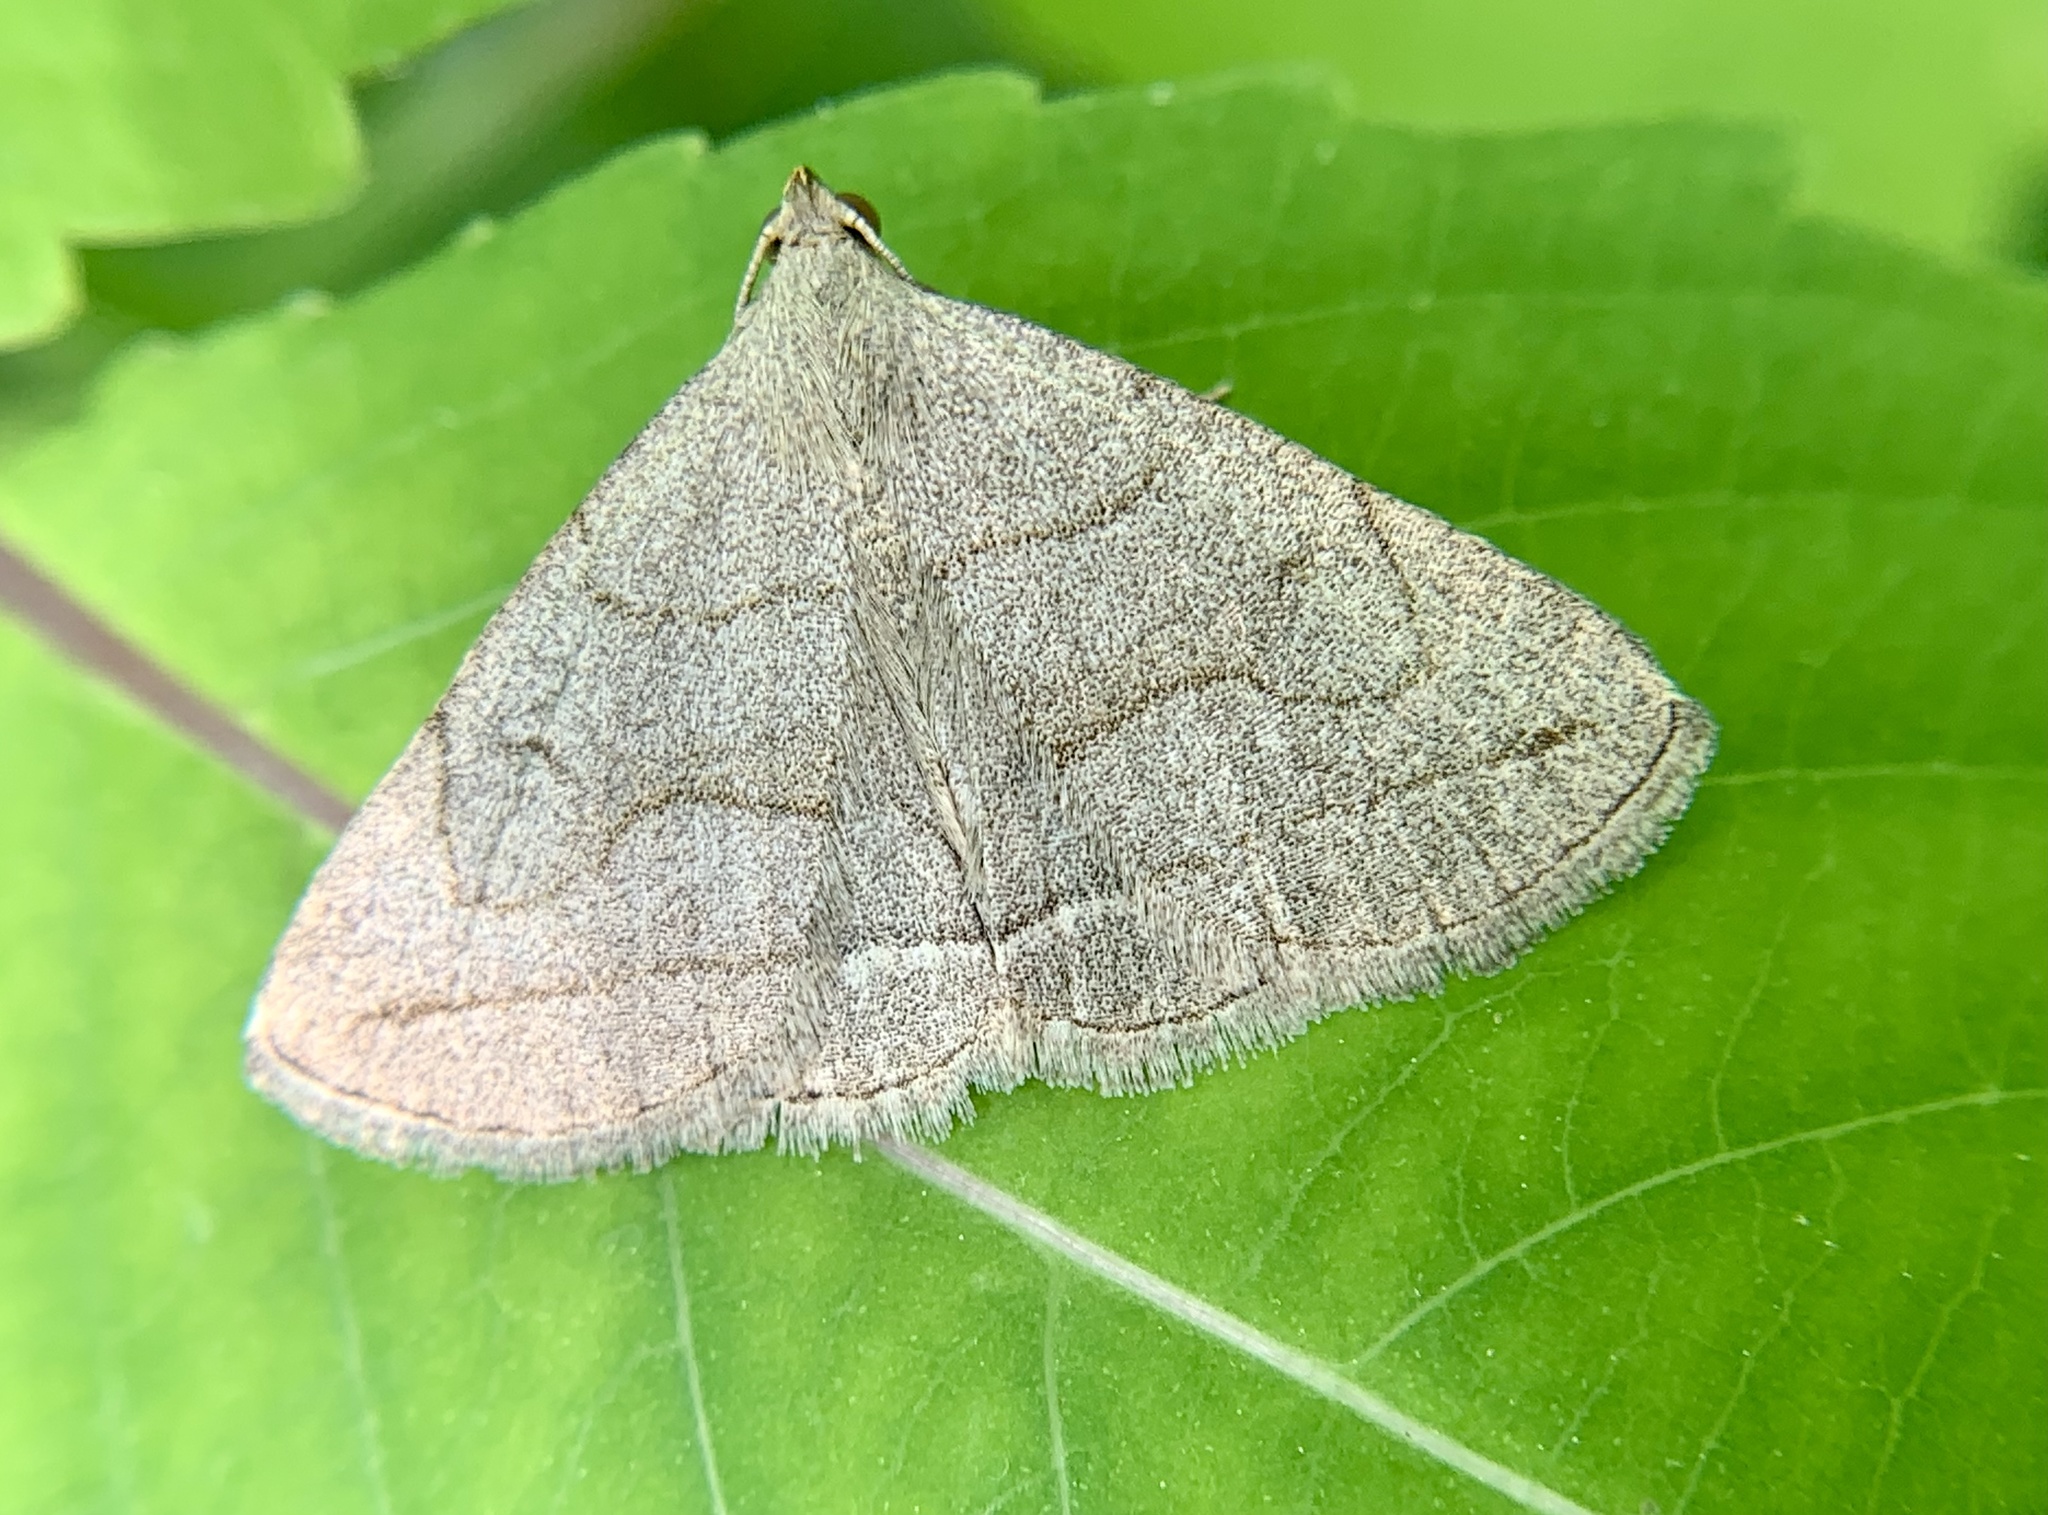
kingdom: Animalia
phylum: Arthropoda
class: Insecta
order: Lepidoptera
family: Erebidae
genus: Zanclognatha
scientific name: Zanclognatha pedipilalis
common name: Grayish fan-foot
